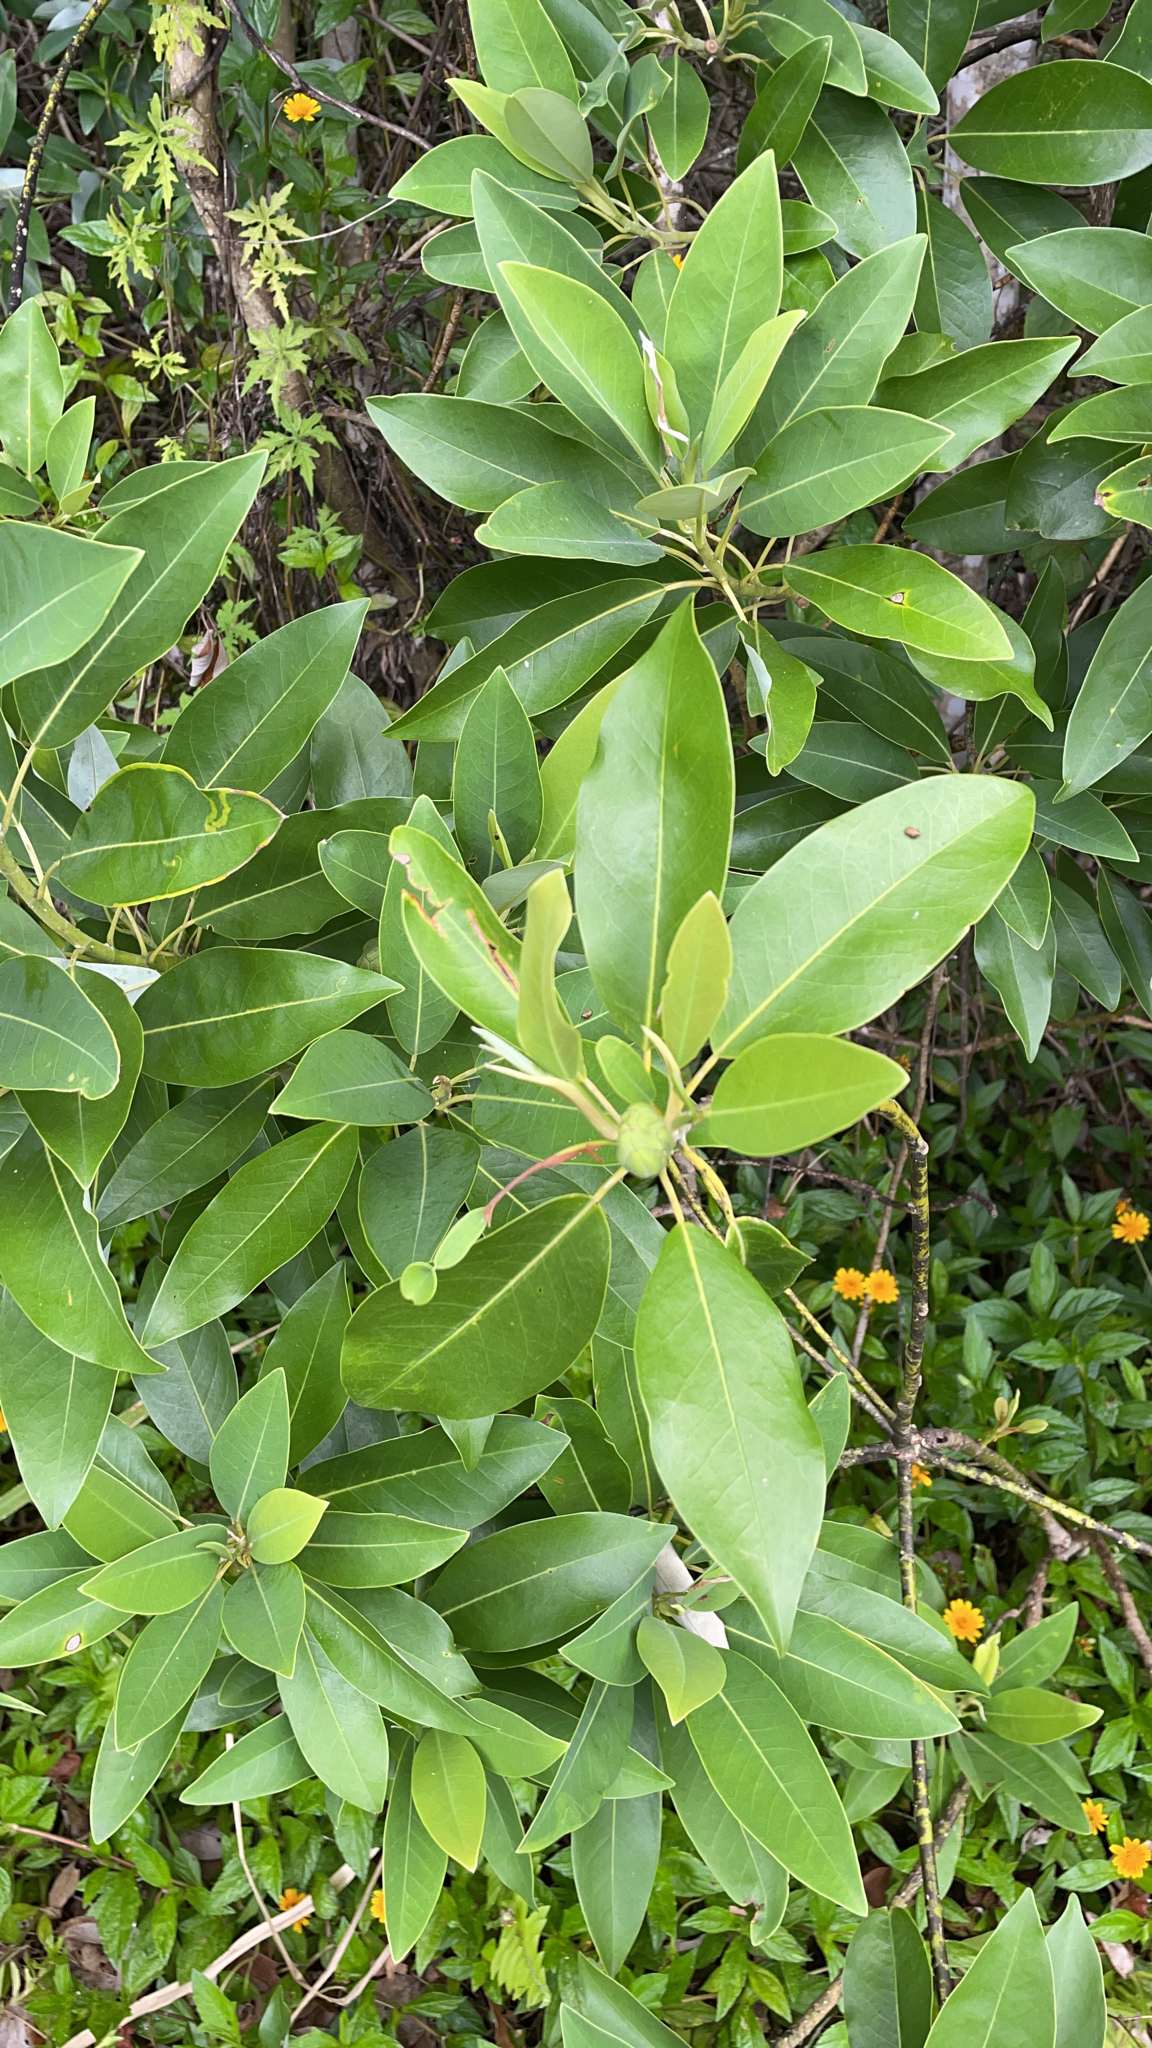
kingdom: Plantae
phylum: Tracheophyta
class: Magnoliopsida
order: Magnoliales
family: Magnoliaceae
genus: Magnolia
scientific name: Magnolia virginiana
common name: Swamp bay
